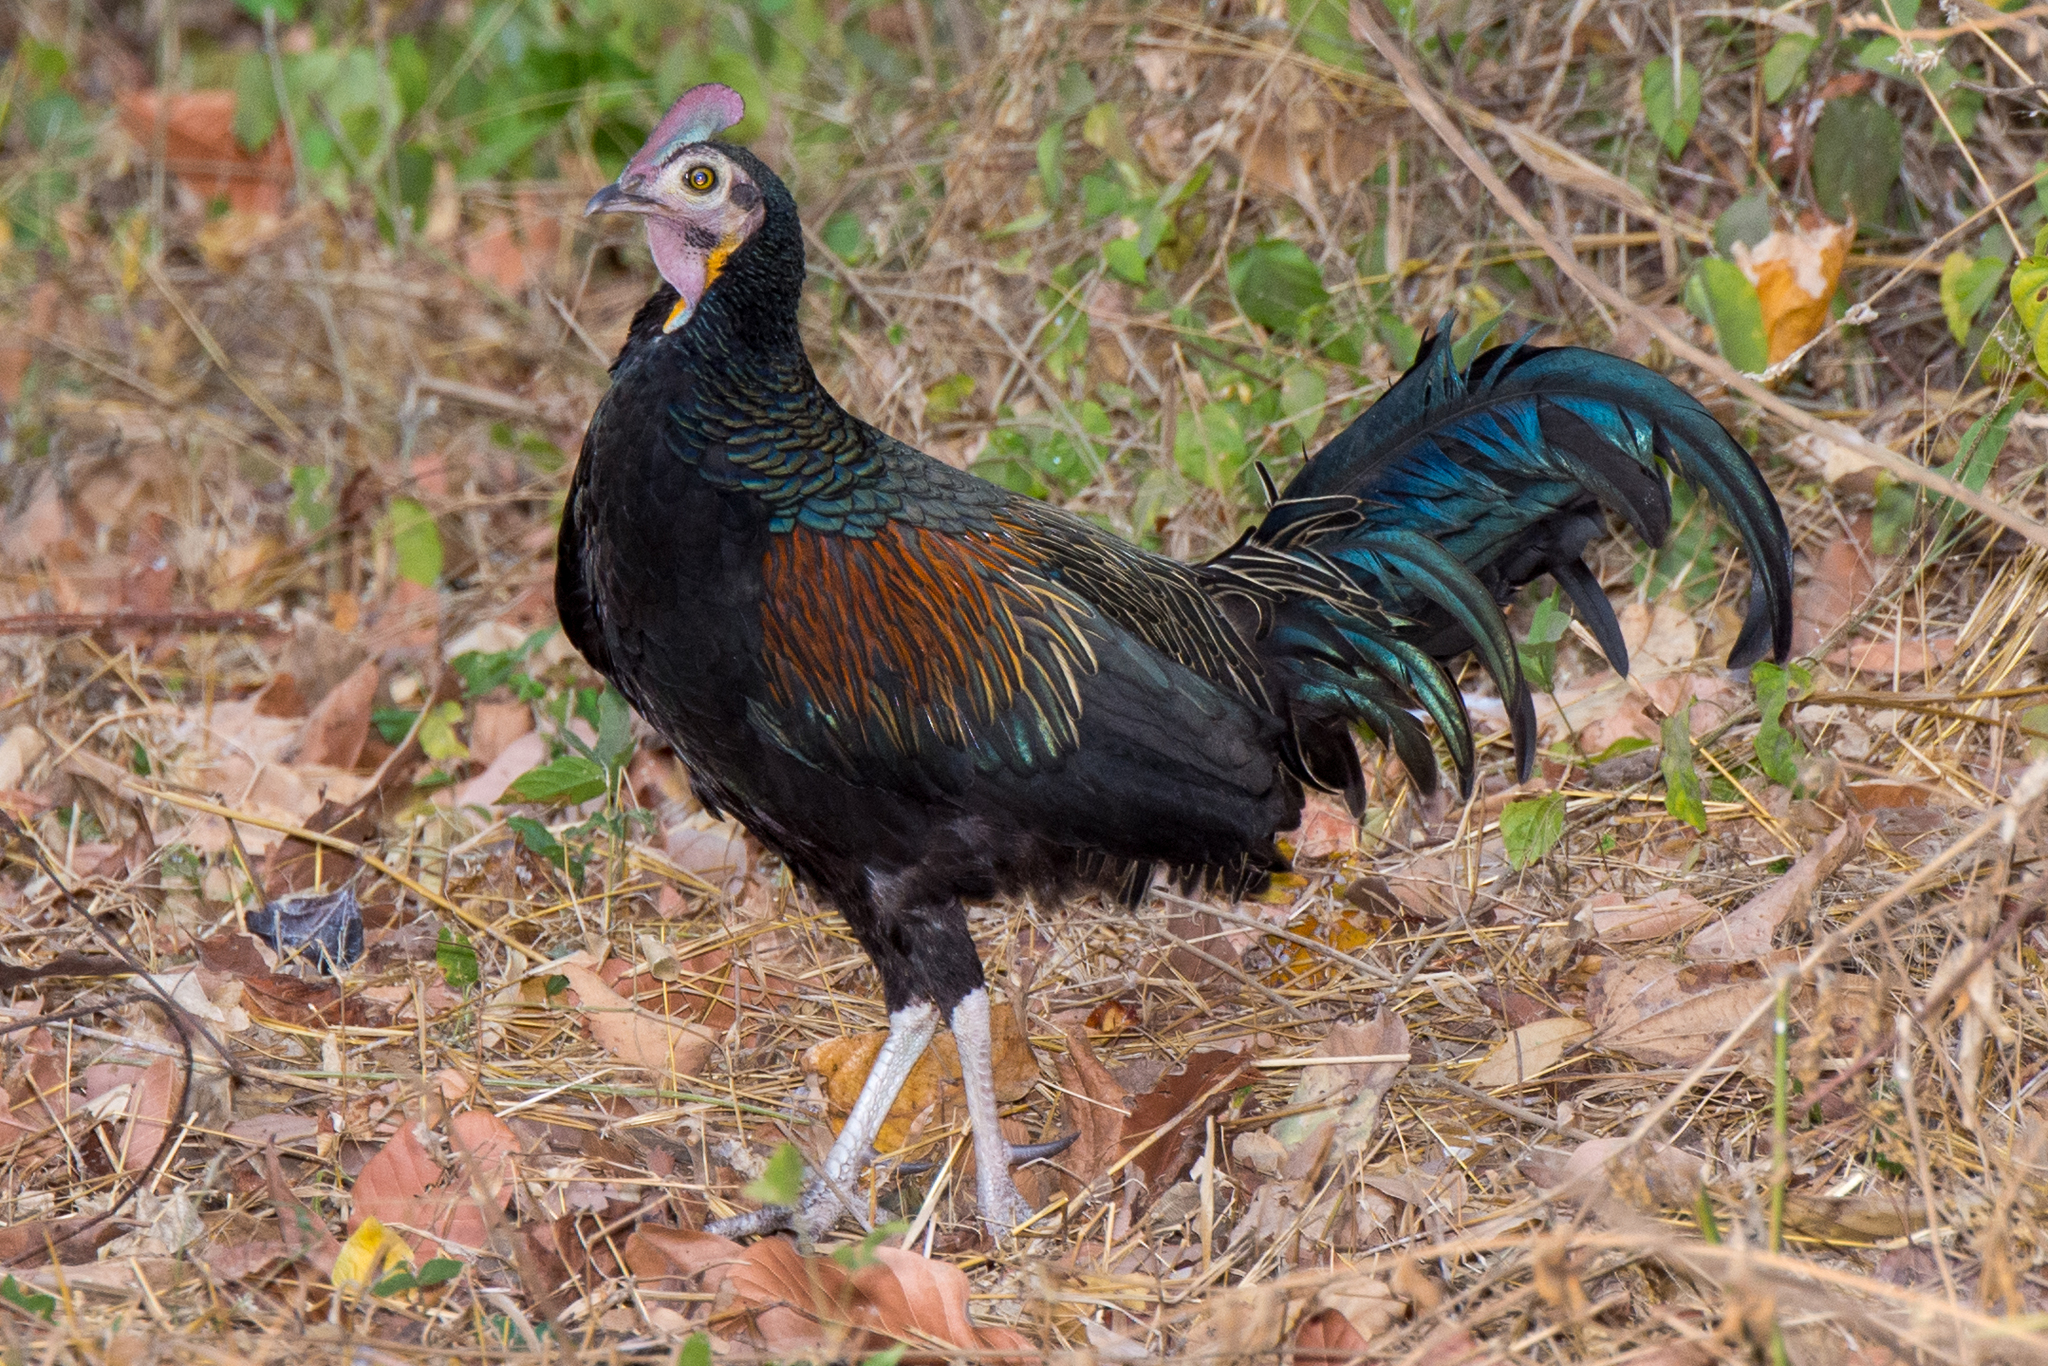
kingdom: Animalia
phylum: Chordata
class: Aves
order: Galliformes
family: Phasianidae
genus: Gallus
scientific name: Gallus varius
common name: Green junglefowl
